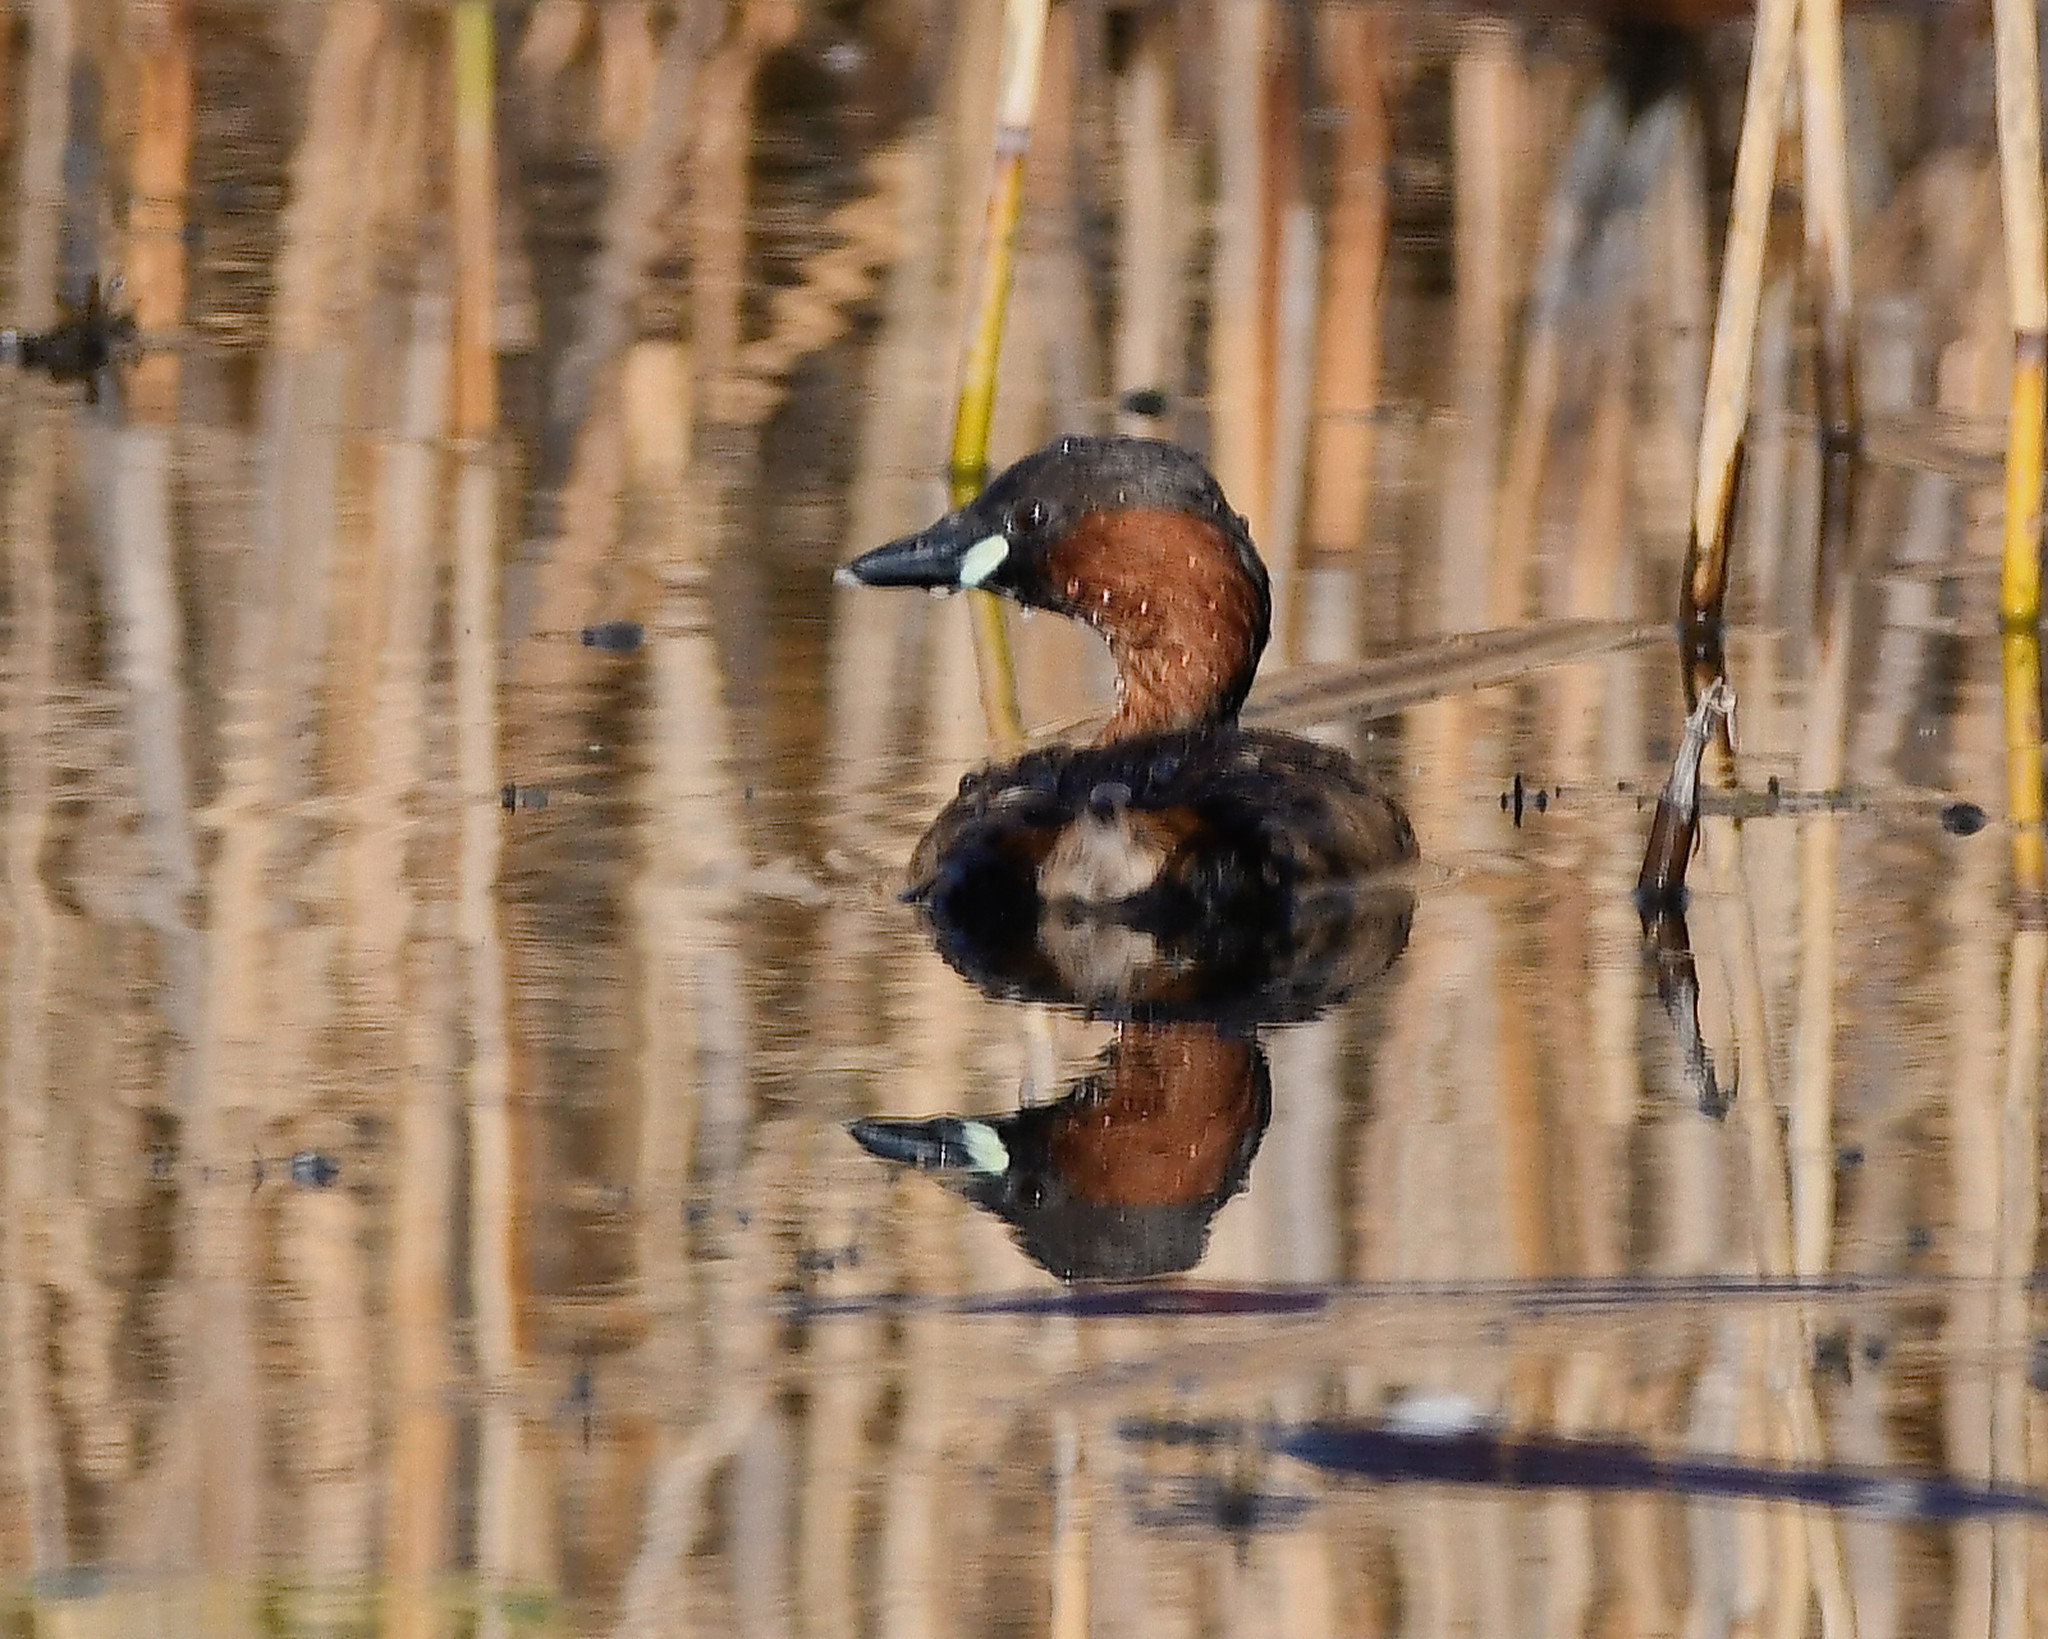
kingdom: Animalia
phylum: Chordata
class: Aves
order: Podicipediformes
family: Podicipedidae
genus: Tachybaptus
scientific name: Tachybaptus ruficollis
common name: Little grebe
